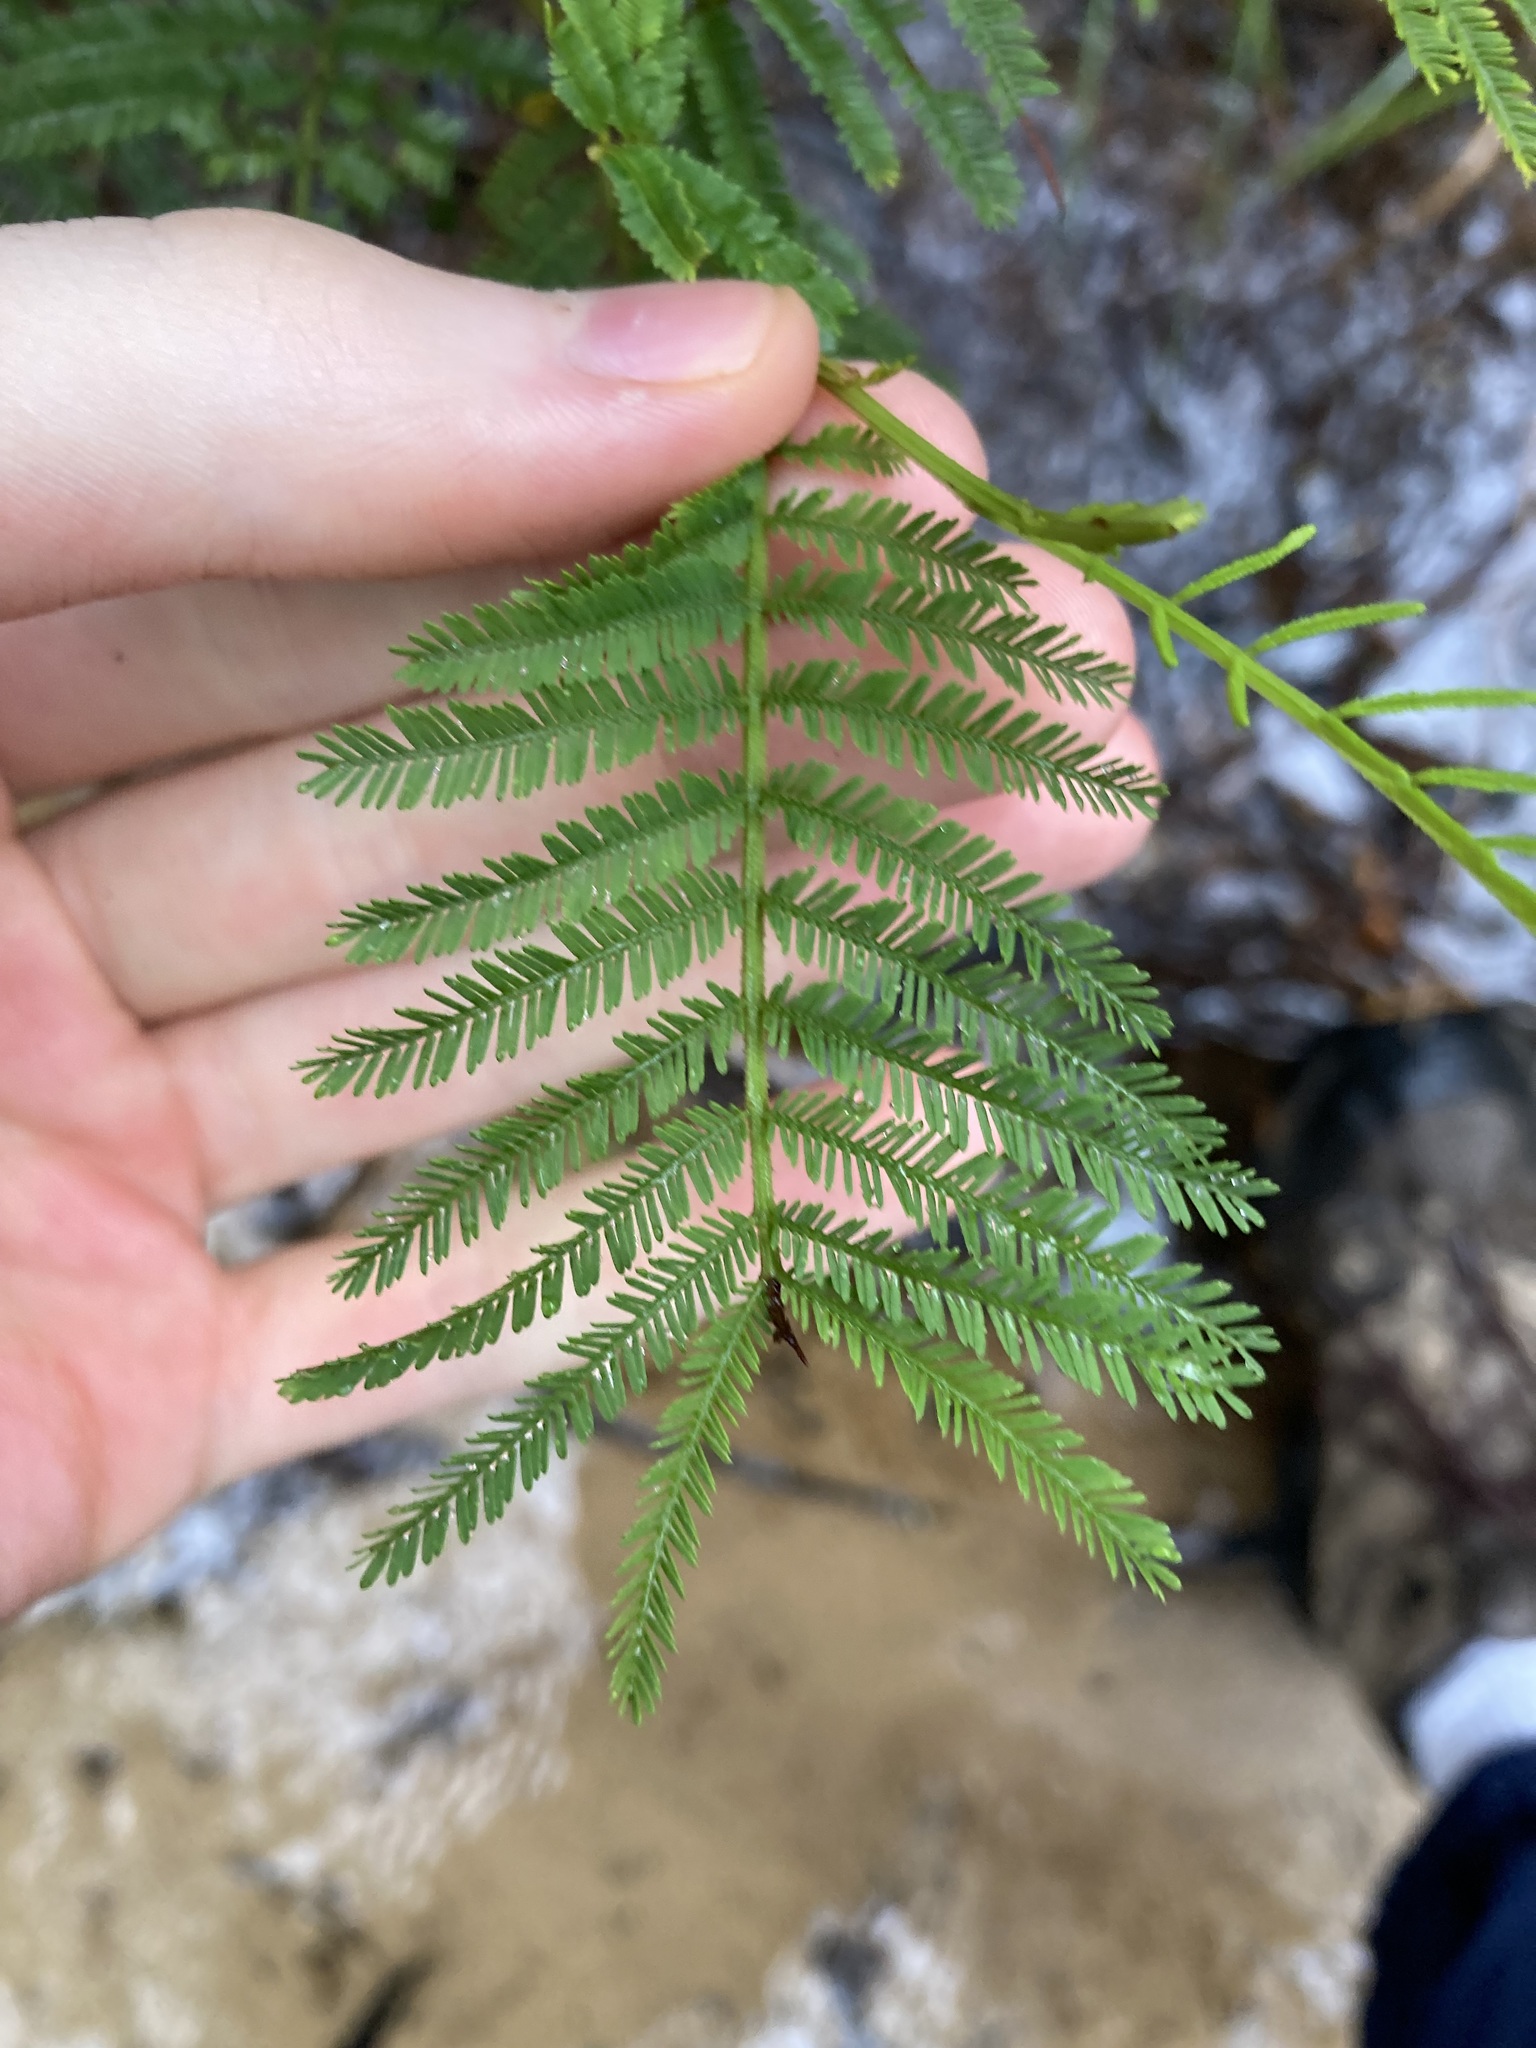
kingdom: Plantae
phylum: Tracheophyta
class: Magnoliopsida
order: Fabales
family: Fabaceae
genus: Acacia
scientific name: Acacia irrorata
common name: Green wattle
